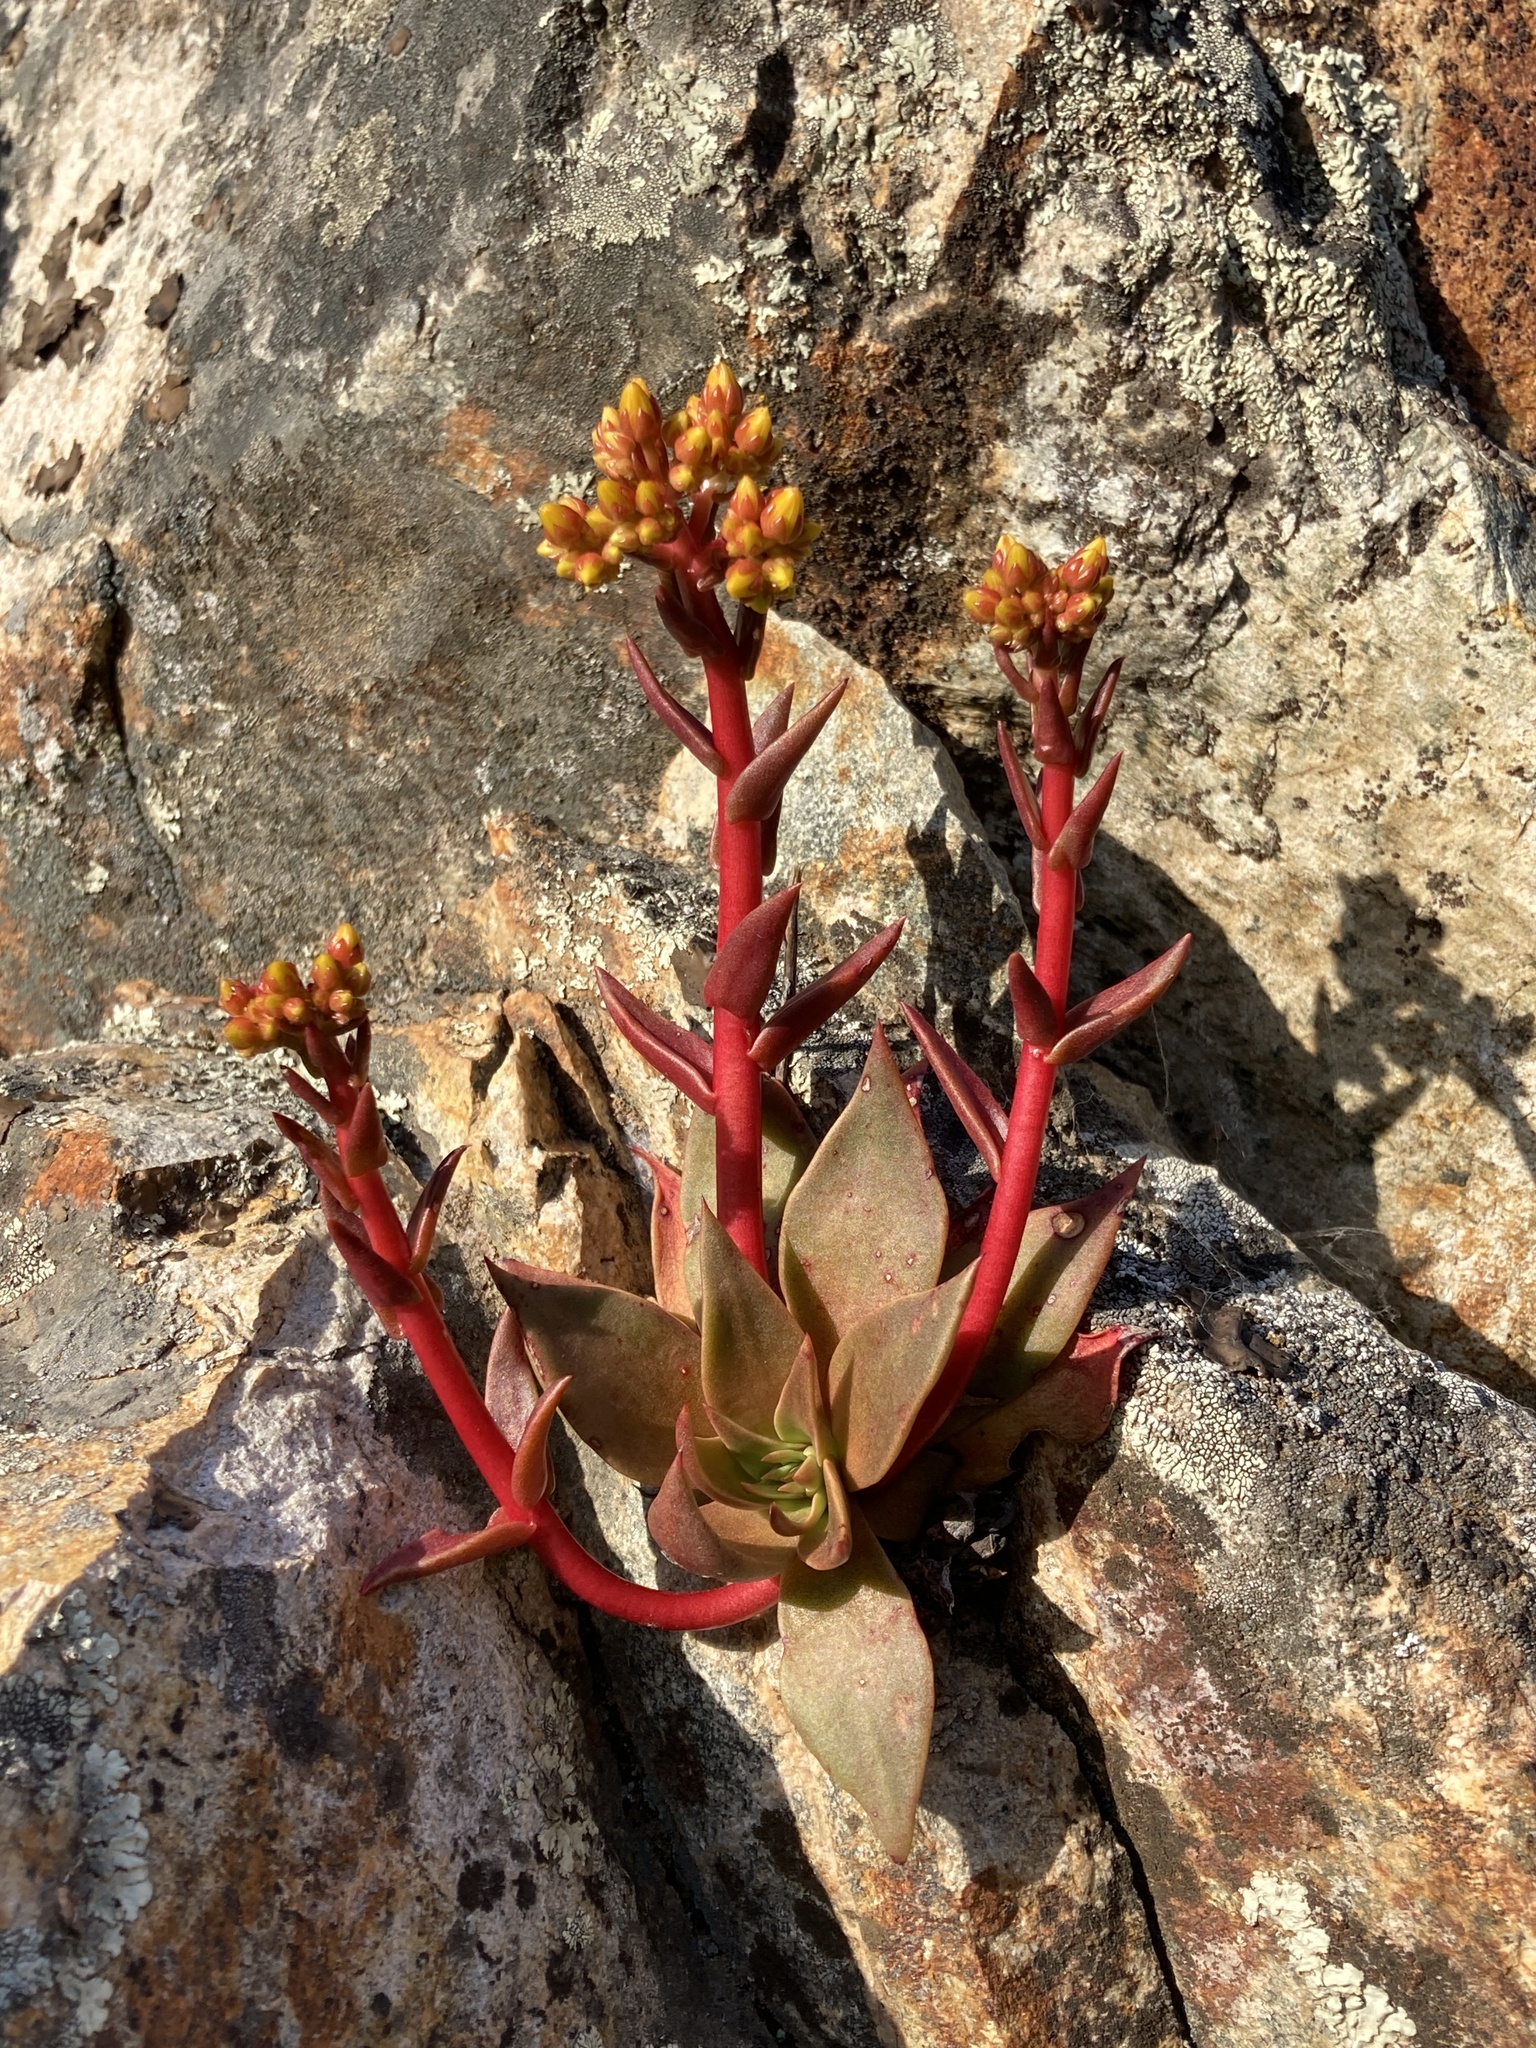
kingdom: Plantae
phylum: Tracheophyta
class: Magnoliopsida
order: Saxifragales
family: Crassulaceae
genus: Dudleya
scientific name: Dudleya cymosa
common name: Canyon dudleya
